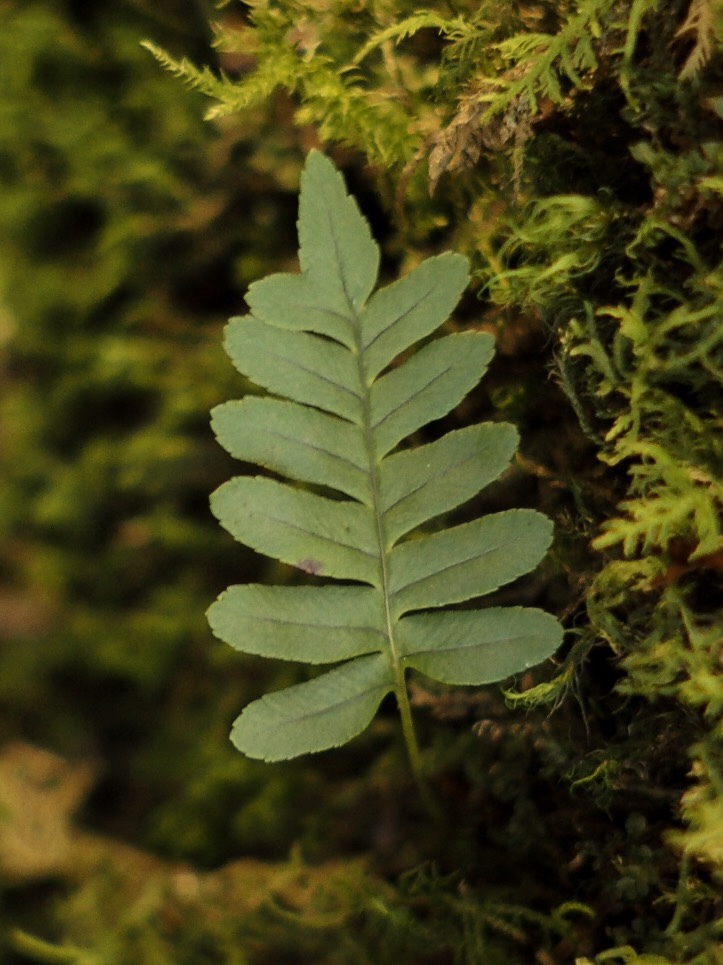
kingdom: Plantae
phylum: Tracheophyta
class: Polypodiopsida
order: Polypodiales
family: Polypodiaceae
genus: Polypodium
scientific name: Polypodium virginianum
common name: American wall fern
